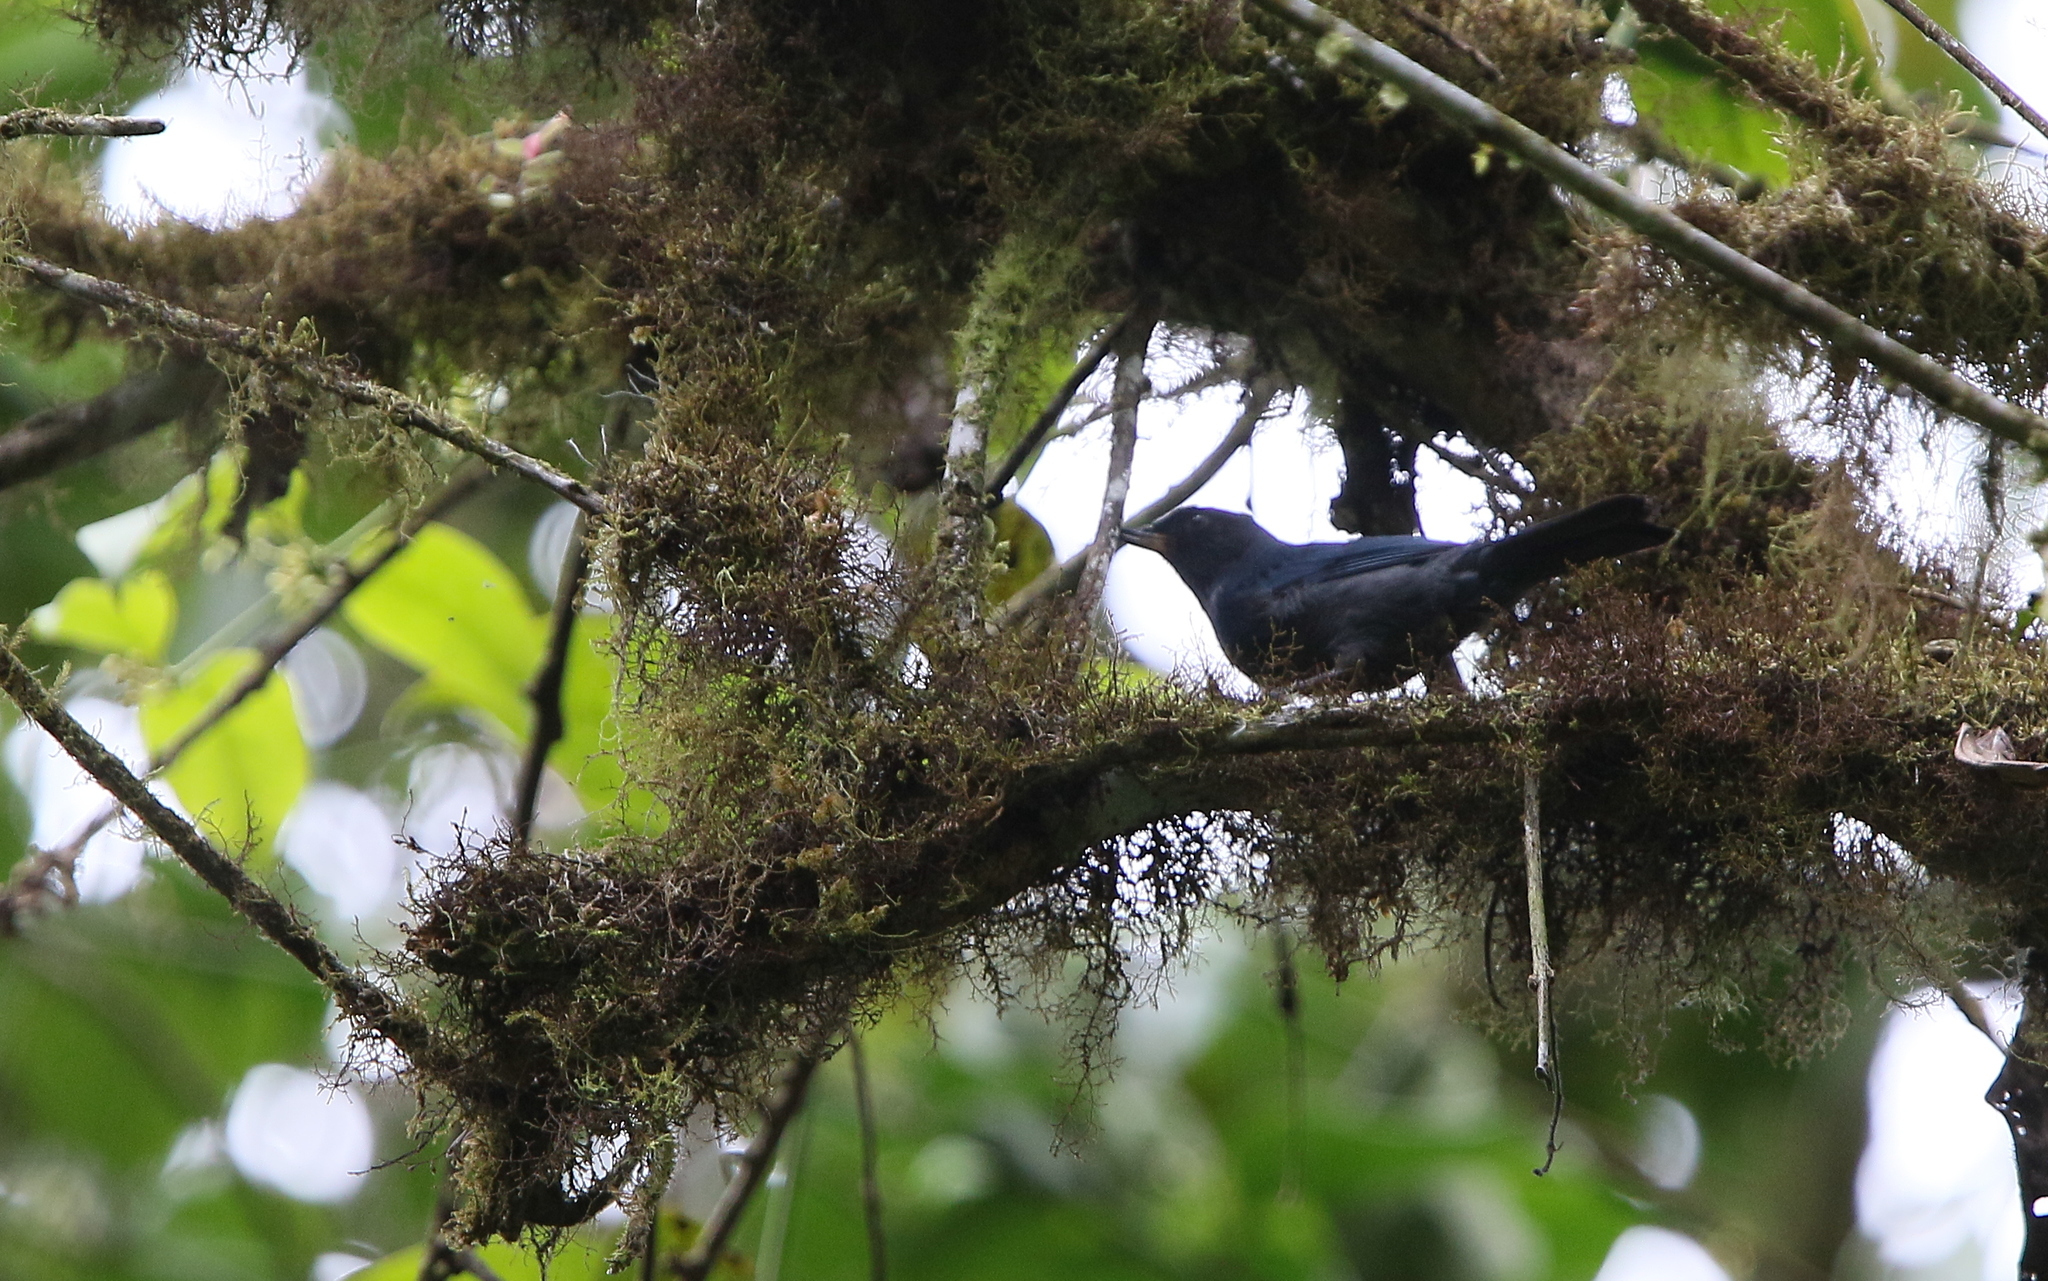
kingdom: Animalia
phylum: Chordata
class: Aves
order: Passeriformes
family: Thraupidae
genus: Diglossa
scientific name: Diglossa cyanea
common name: Masked flowerpiercer
